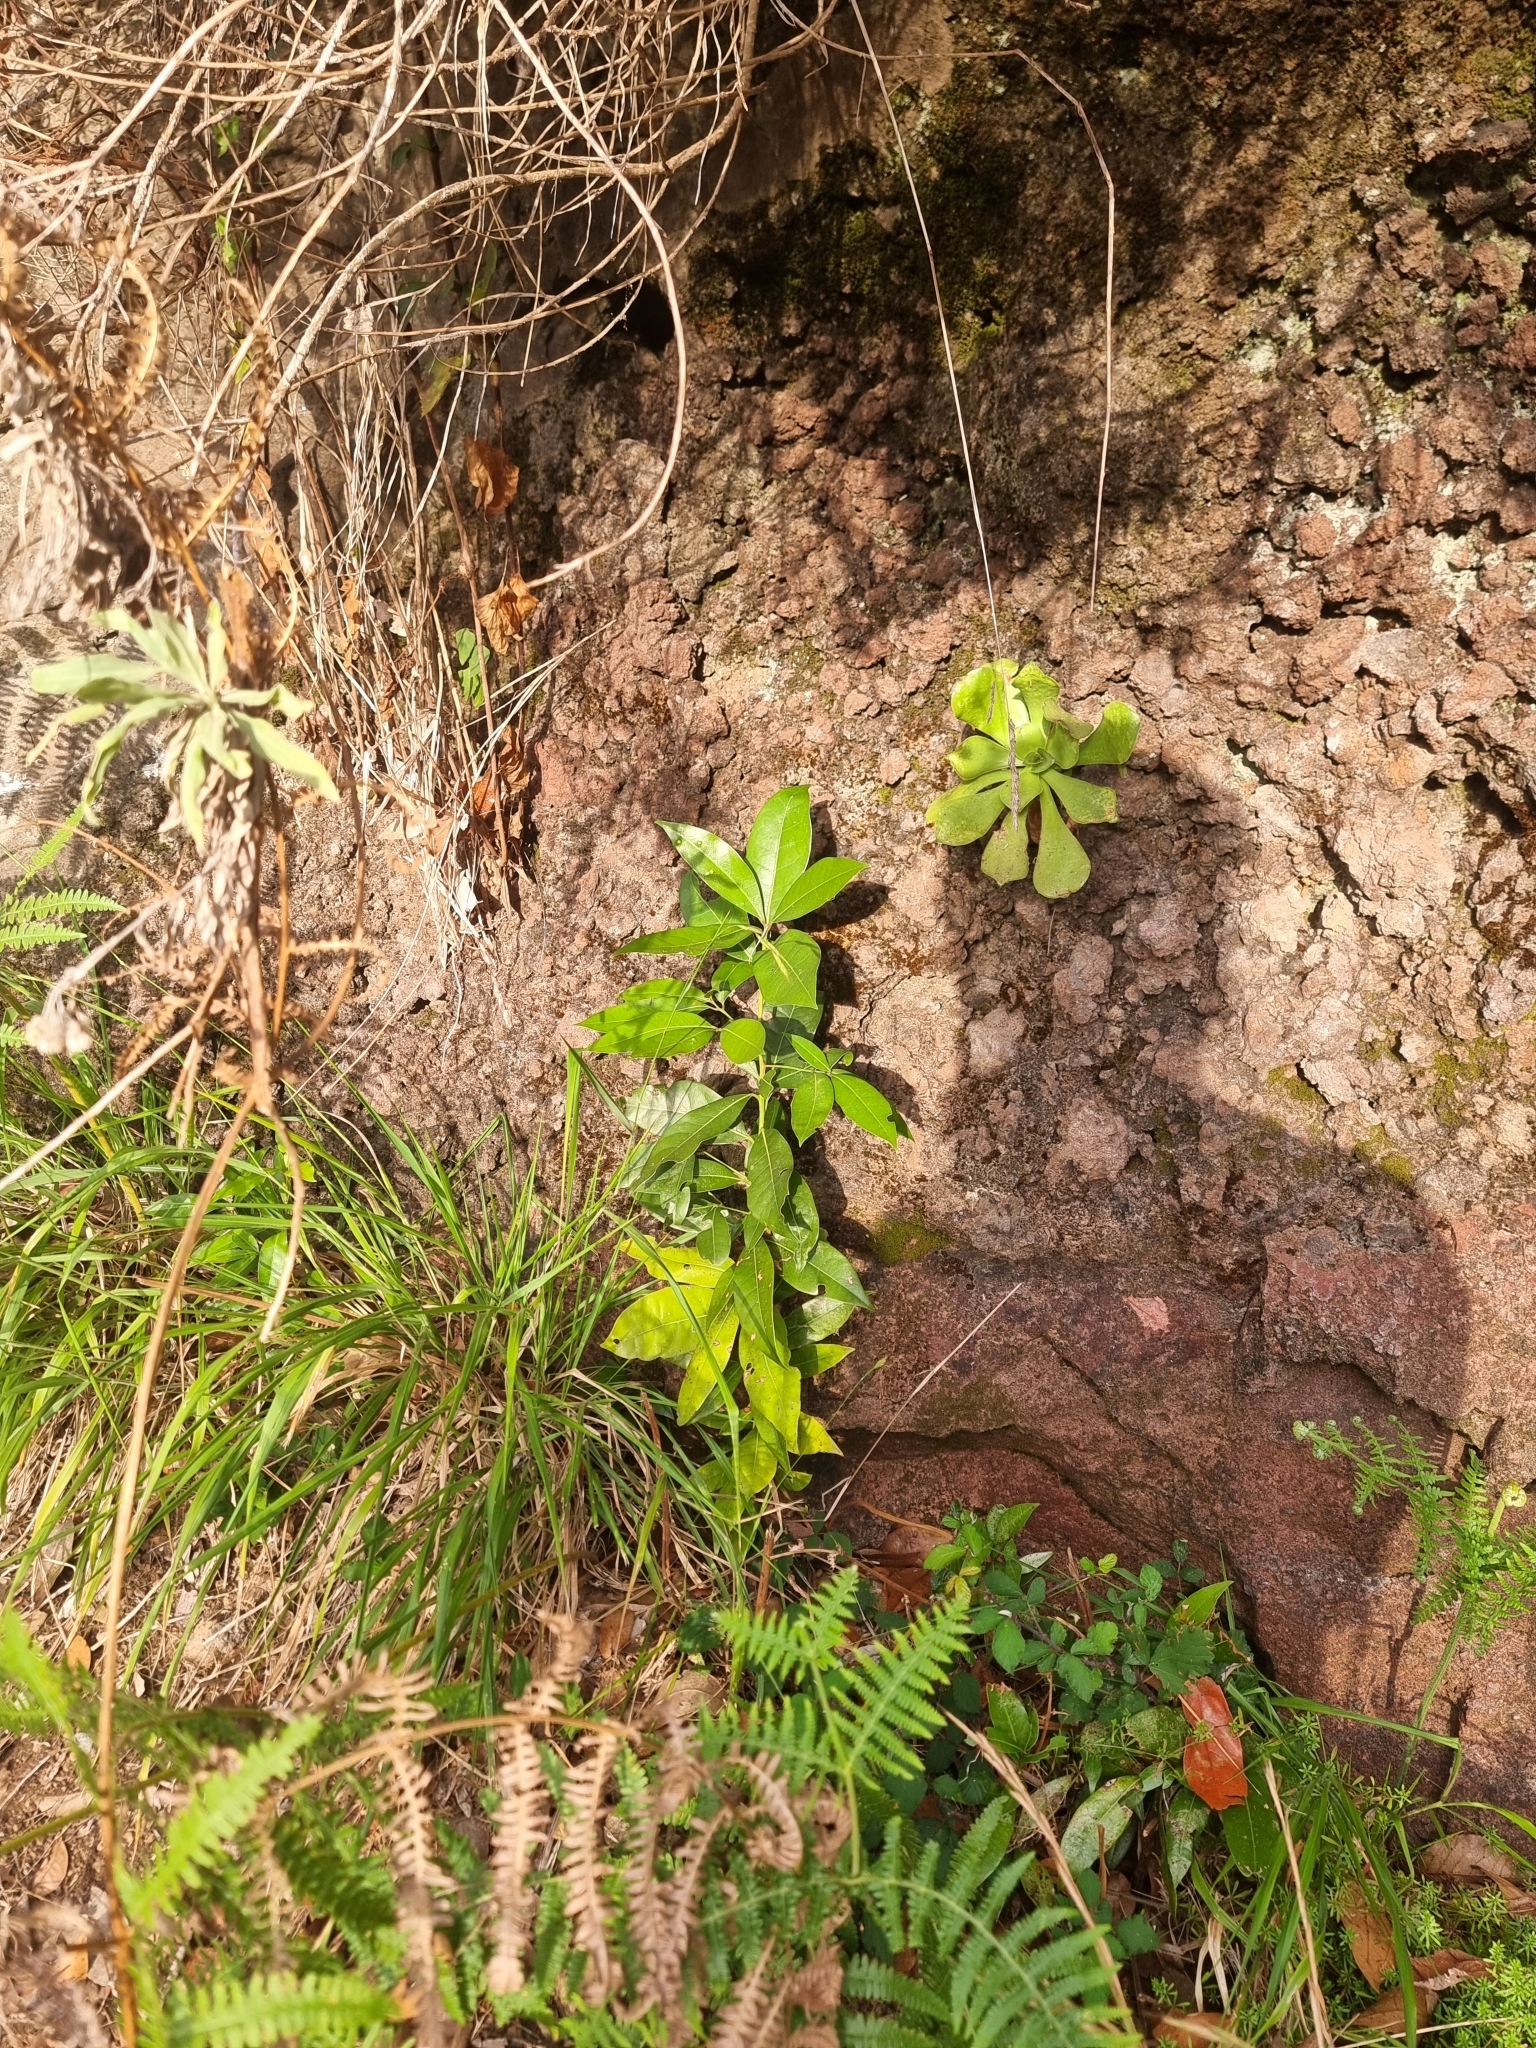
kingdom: Plantae
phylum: Tracheophyta
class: Magnoliopsida
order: Laurales
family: Lauraceae
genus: Apollonias
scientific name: Apollonias barbujana
